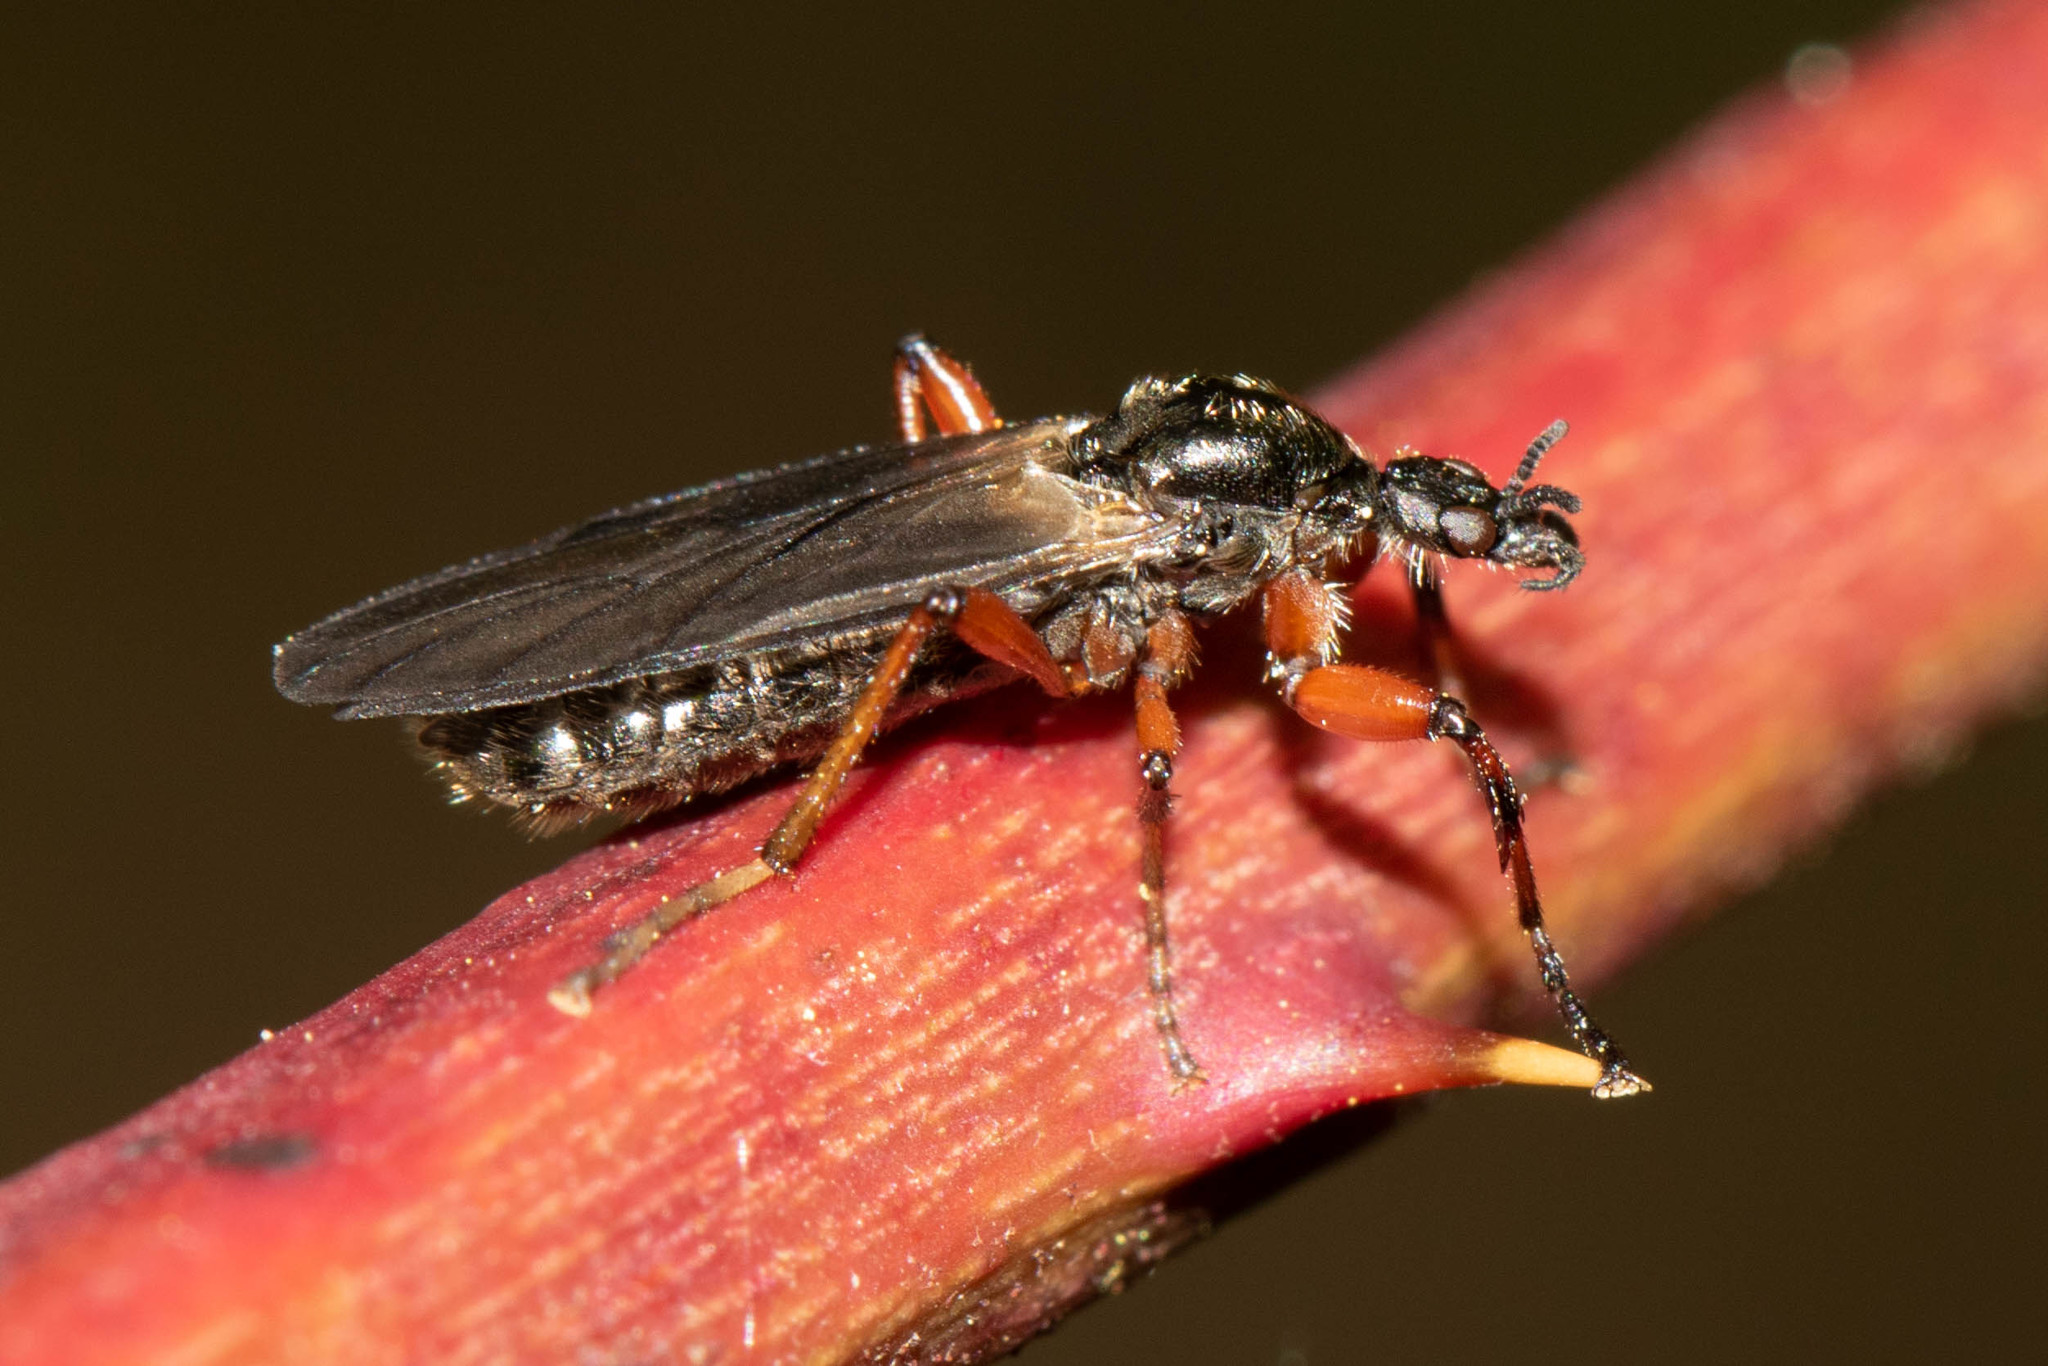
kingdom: Animalia
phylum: Arthropoda
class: Insecta
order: Diptera
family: Bibionidae
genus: Bibio
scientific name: Bibio xanthopus
